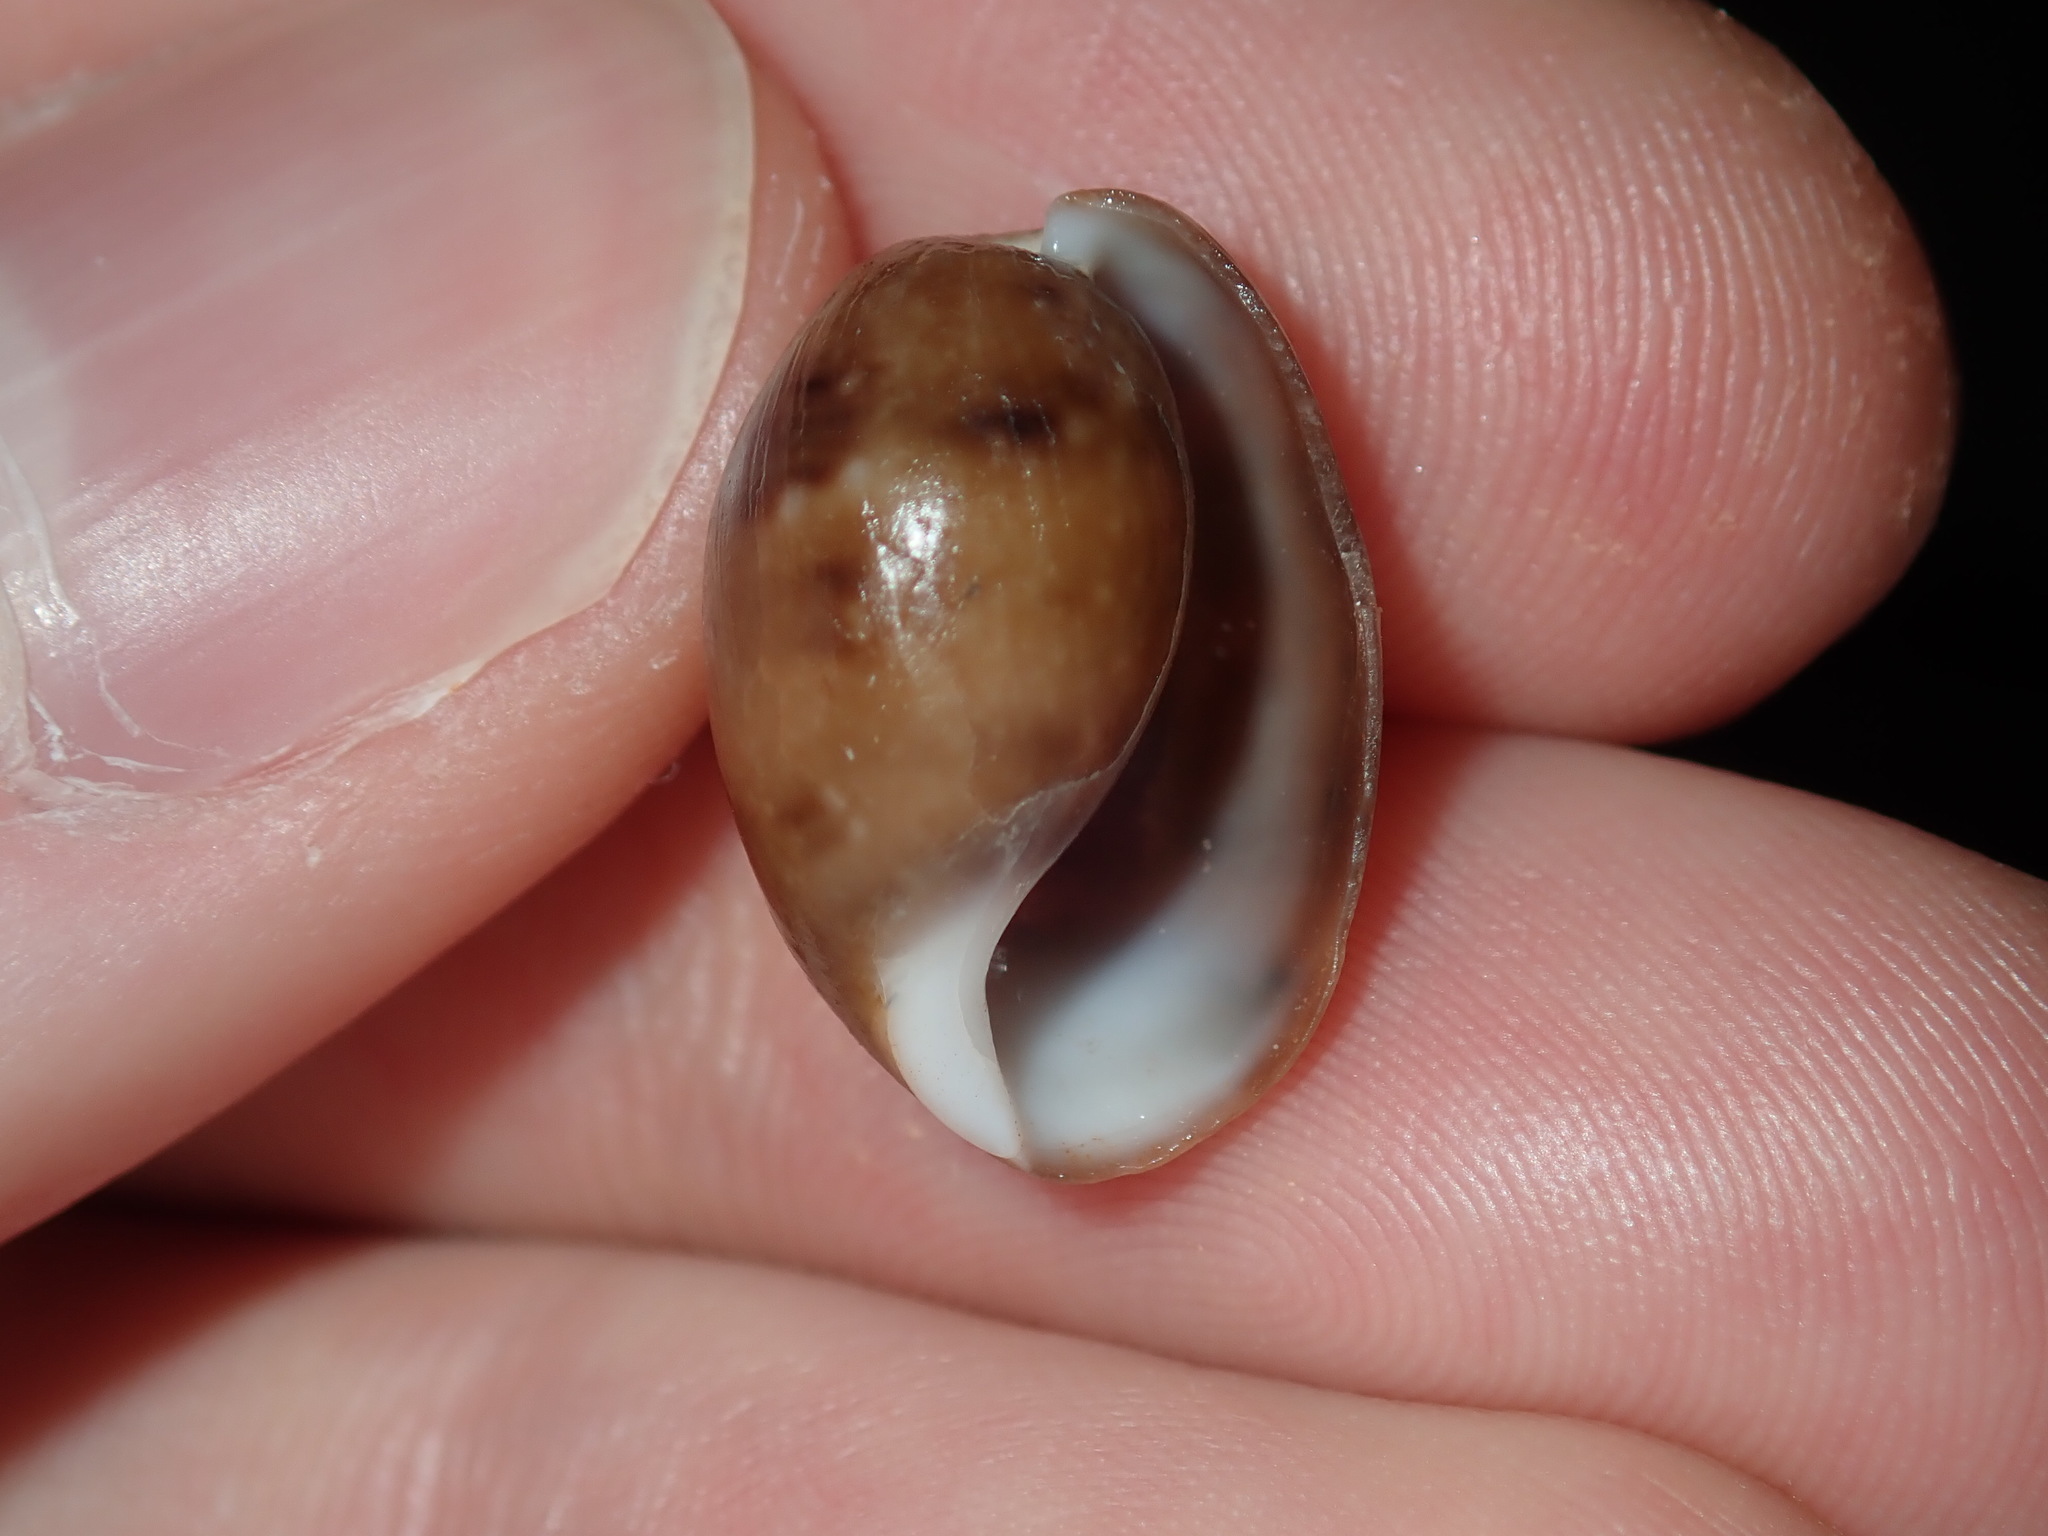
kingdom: Animalia
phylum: Mollusca
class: Gastropoda
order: Cephalaspidea
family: Bullidae
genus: Bulla
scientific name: Bulla mabillei
